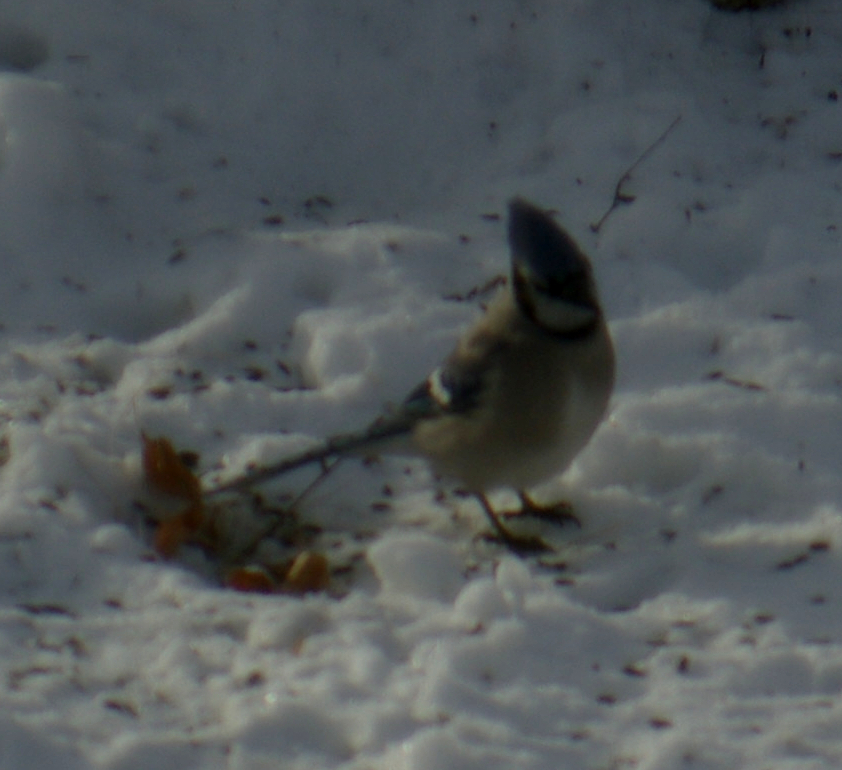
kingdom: Animalia
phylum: Chordata
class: Aves
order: Passeriformes
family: Corvidae
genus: Cyanocitta
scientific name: Cyanocitta cristata
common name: Blue jay
